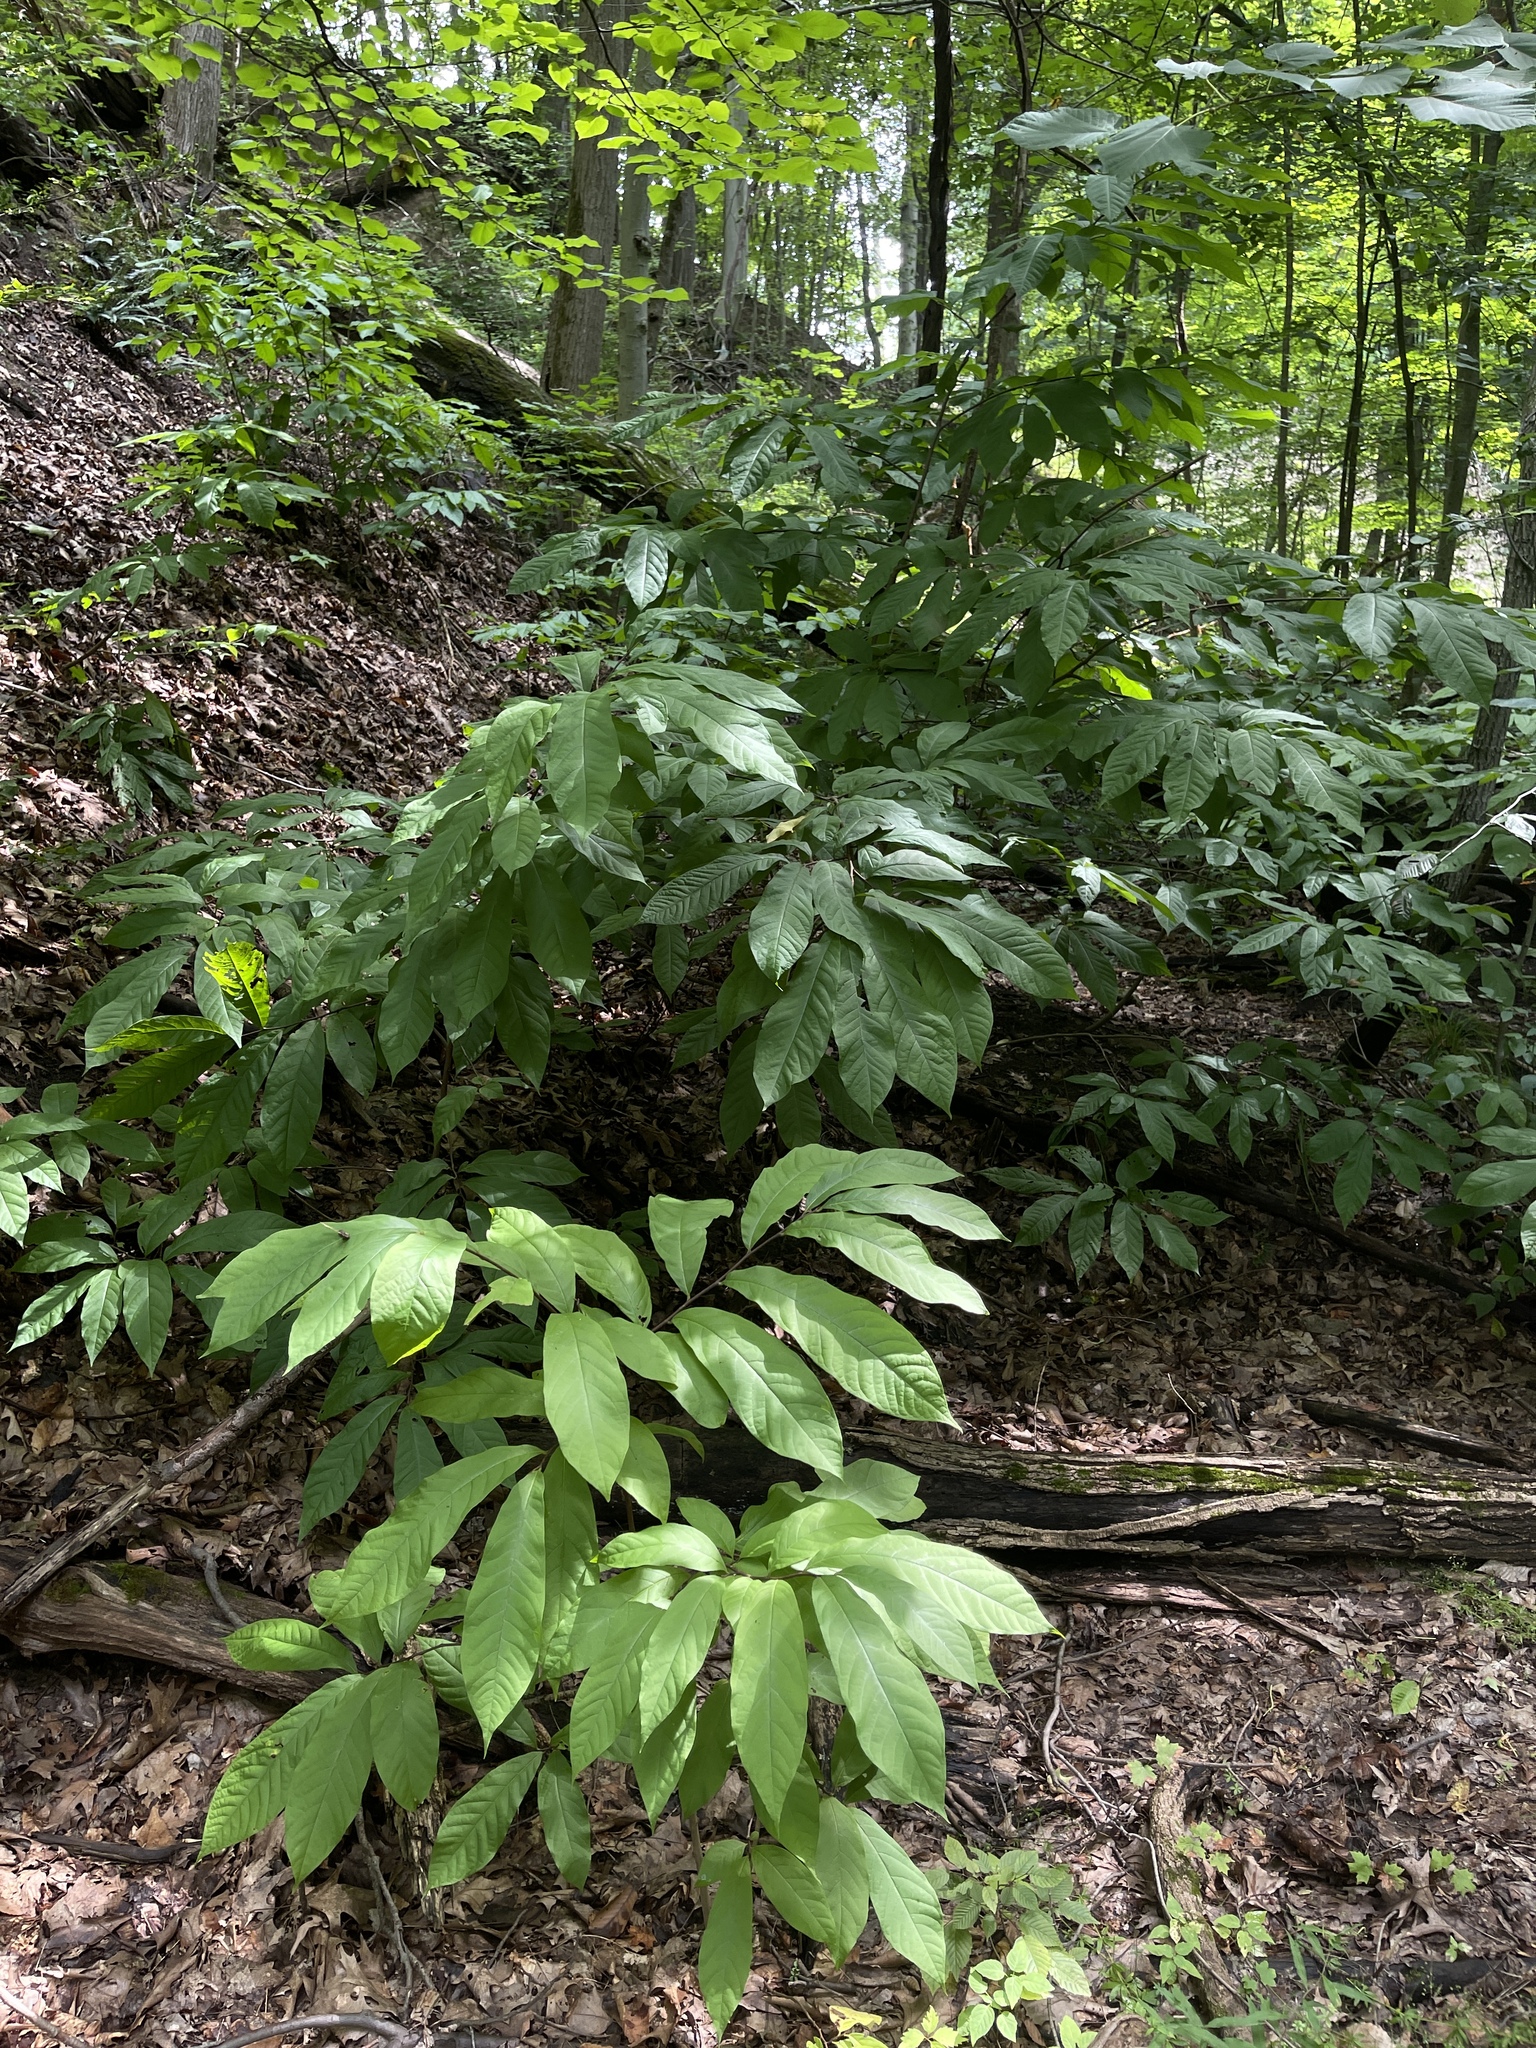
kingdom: Plantae
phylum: Tracheophyta
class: Magnoliopsida
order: Magnoliales
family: Annonaceae
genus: Asimina
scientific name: Asimina triloba
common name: Dog-banana
